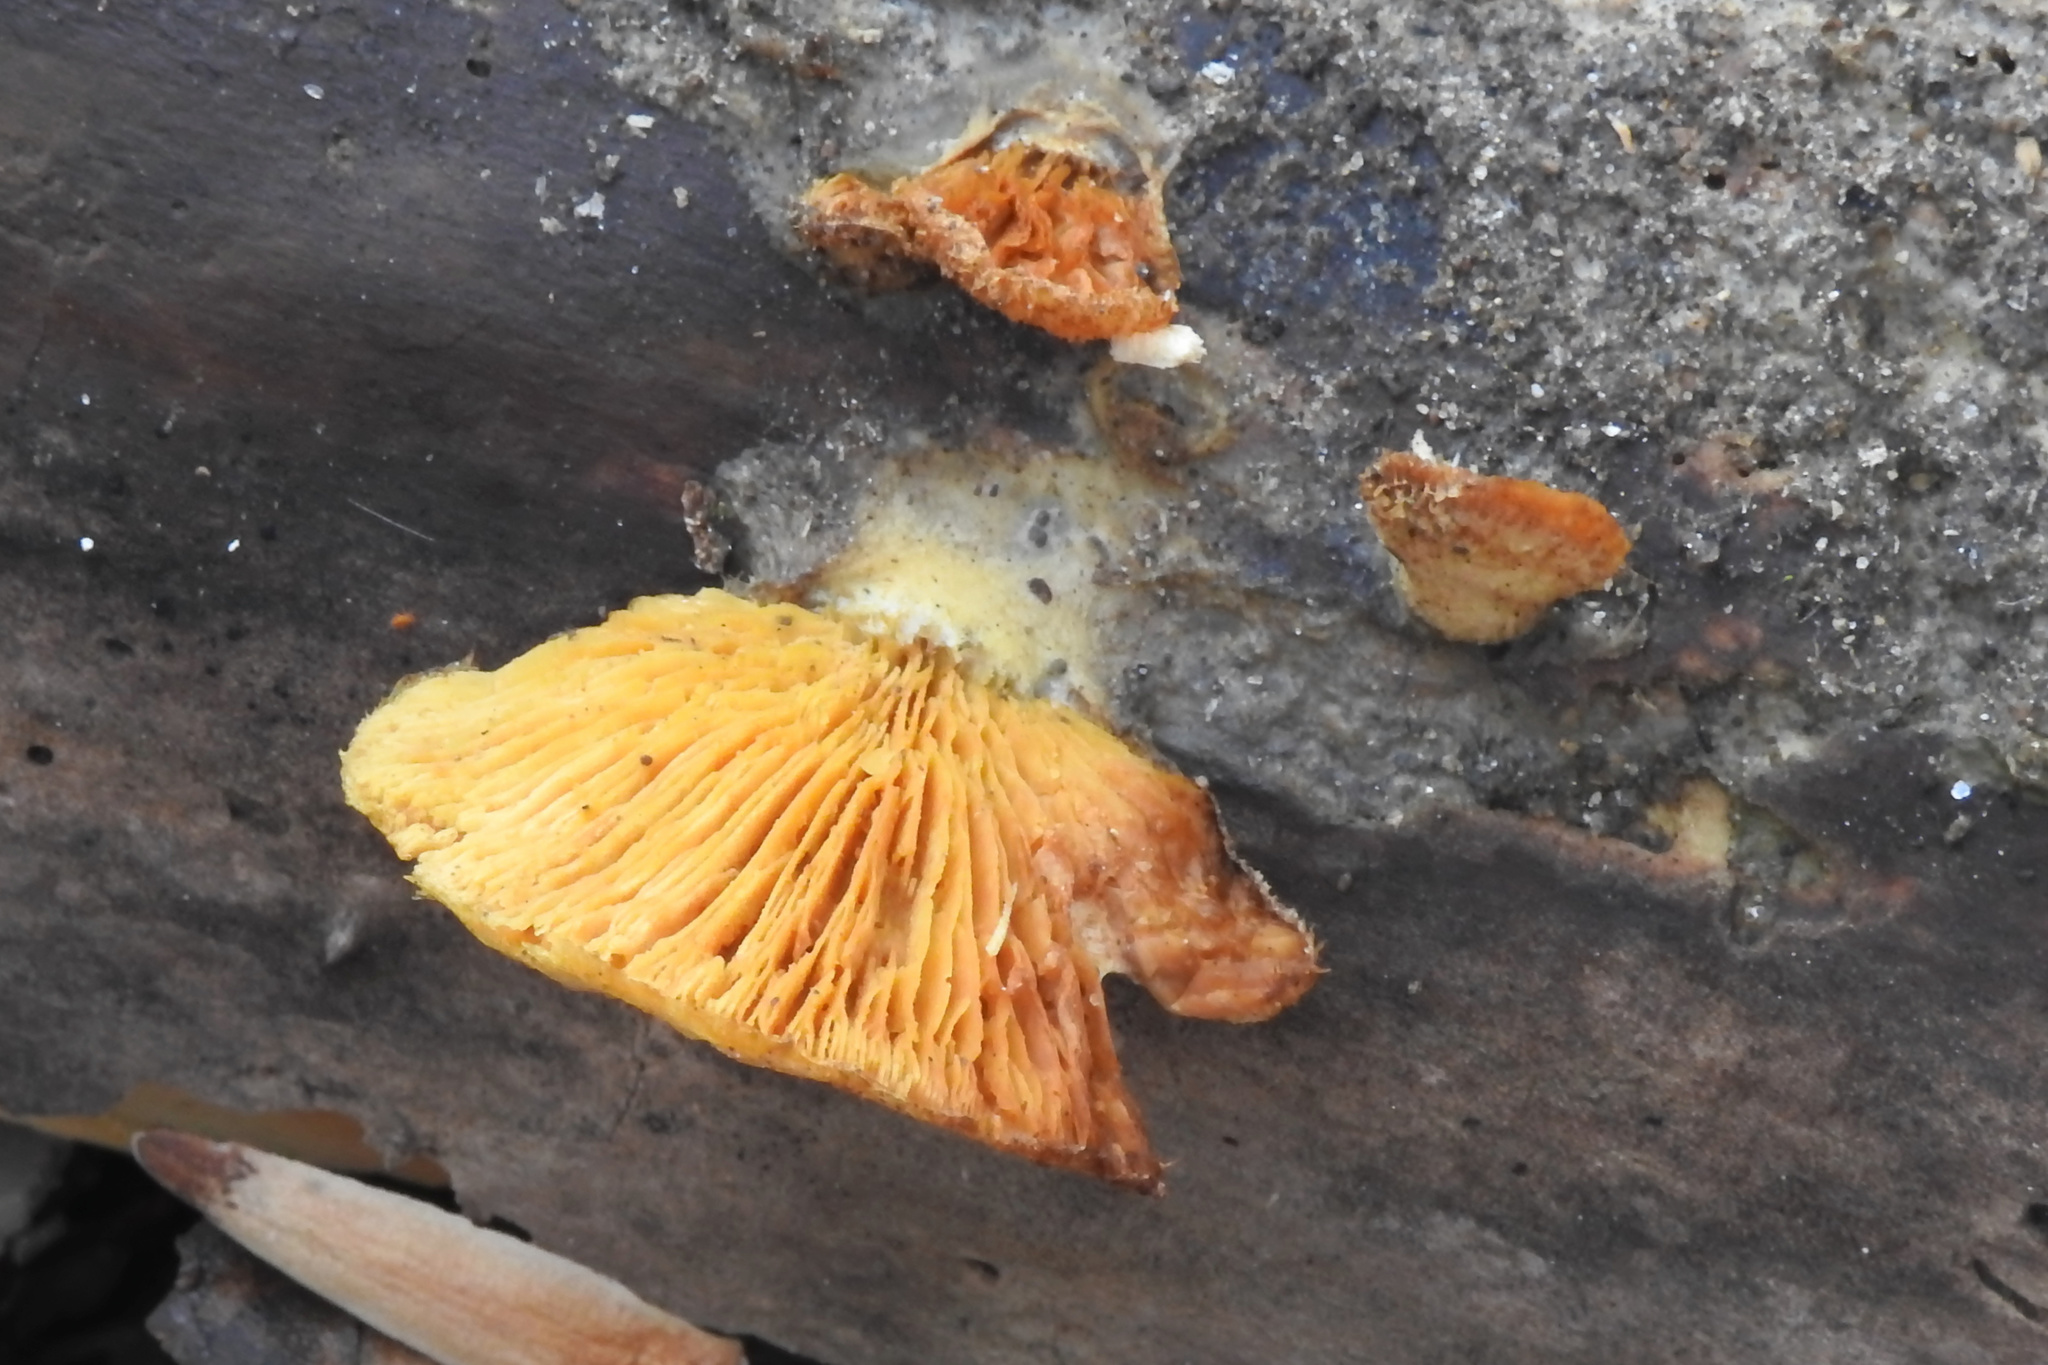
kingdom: Fungi
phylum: Basidiomycota
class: Agaricomycetes
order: Agaricales
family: Phyllotopsidaceae
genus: Phyllotopsis
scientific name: Phyllotopsis nidulans
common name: Orange mock oyster
